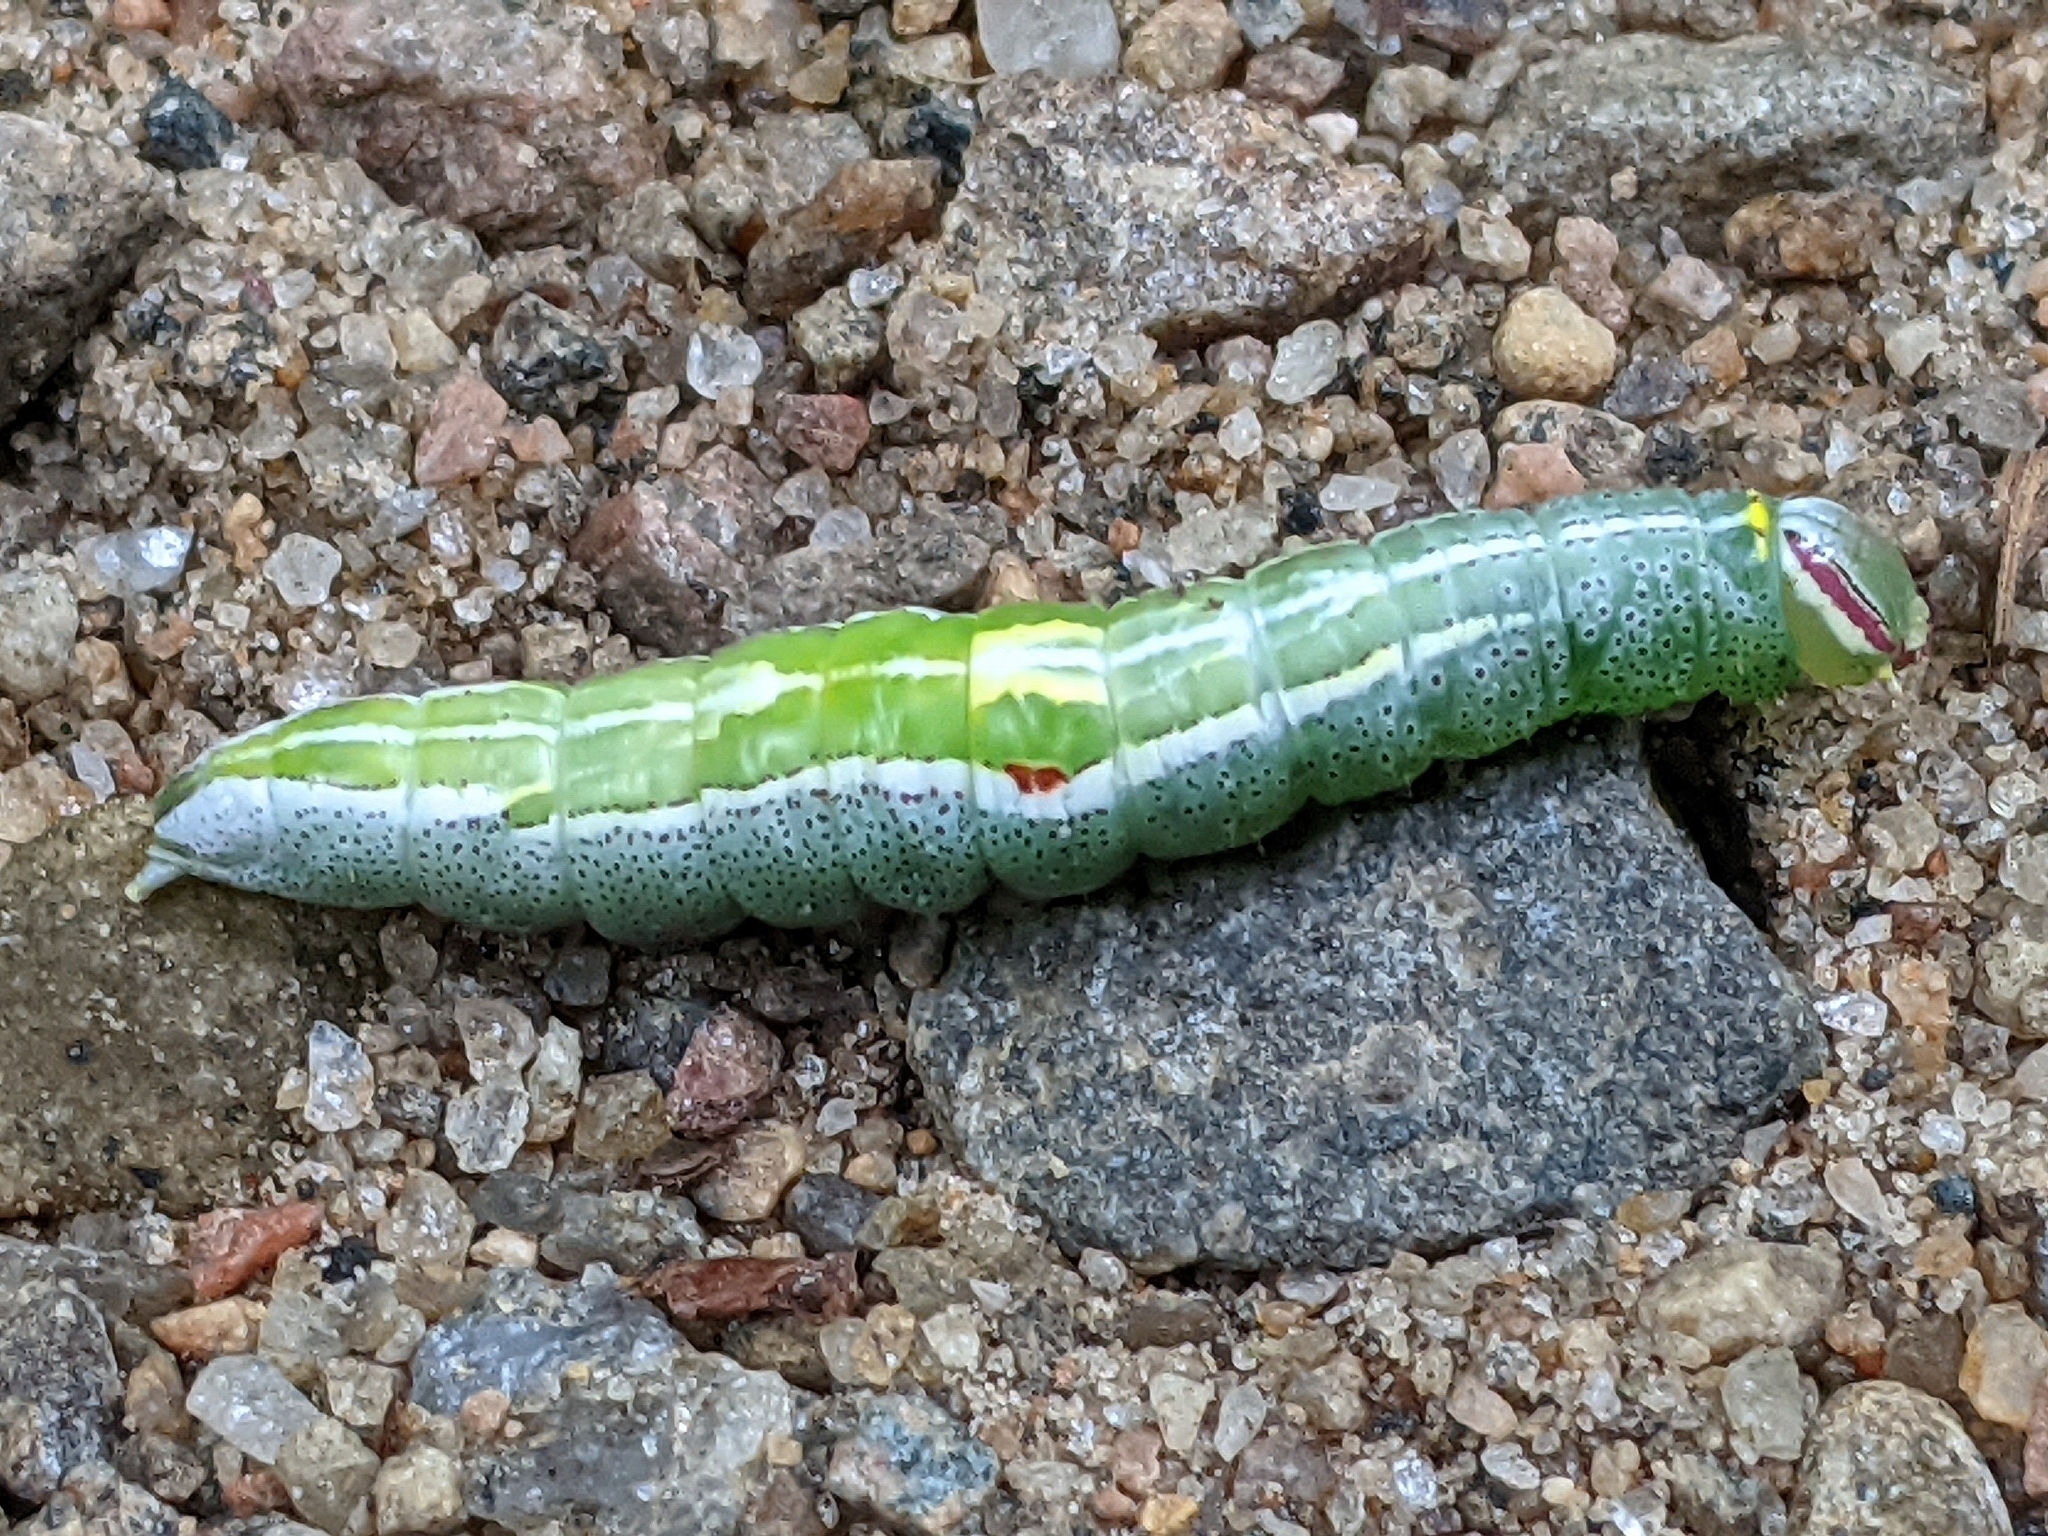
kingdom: Animalia
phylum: Arthropoda
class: Insecta
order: Lepidoptera
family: Notodontidae
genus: Disphragis
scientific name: Disphragis Cecrita guttivitta
